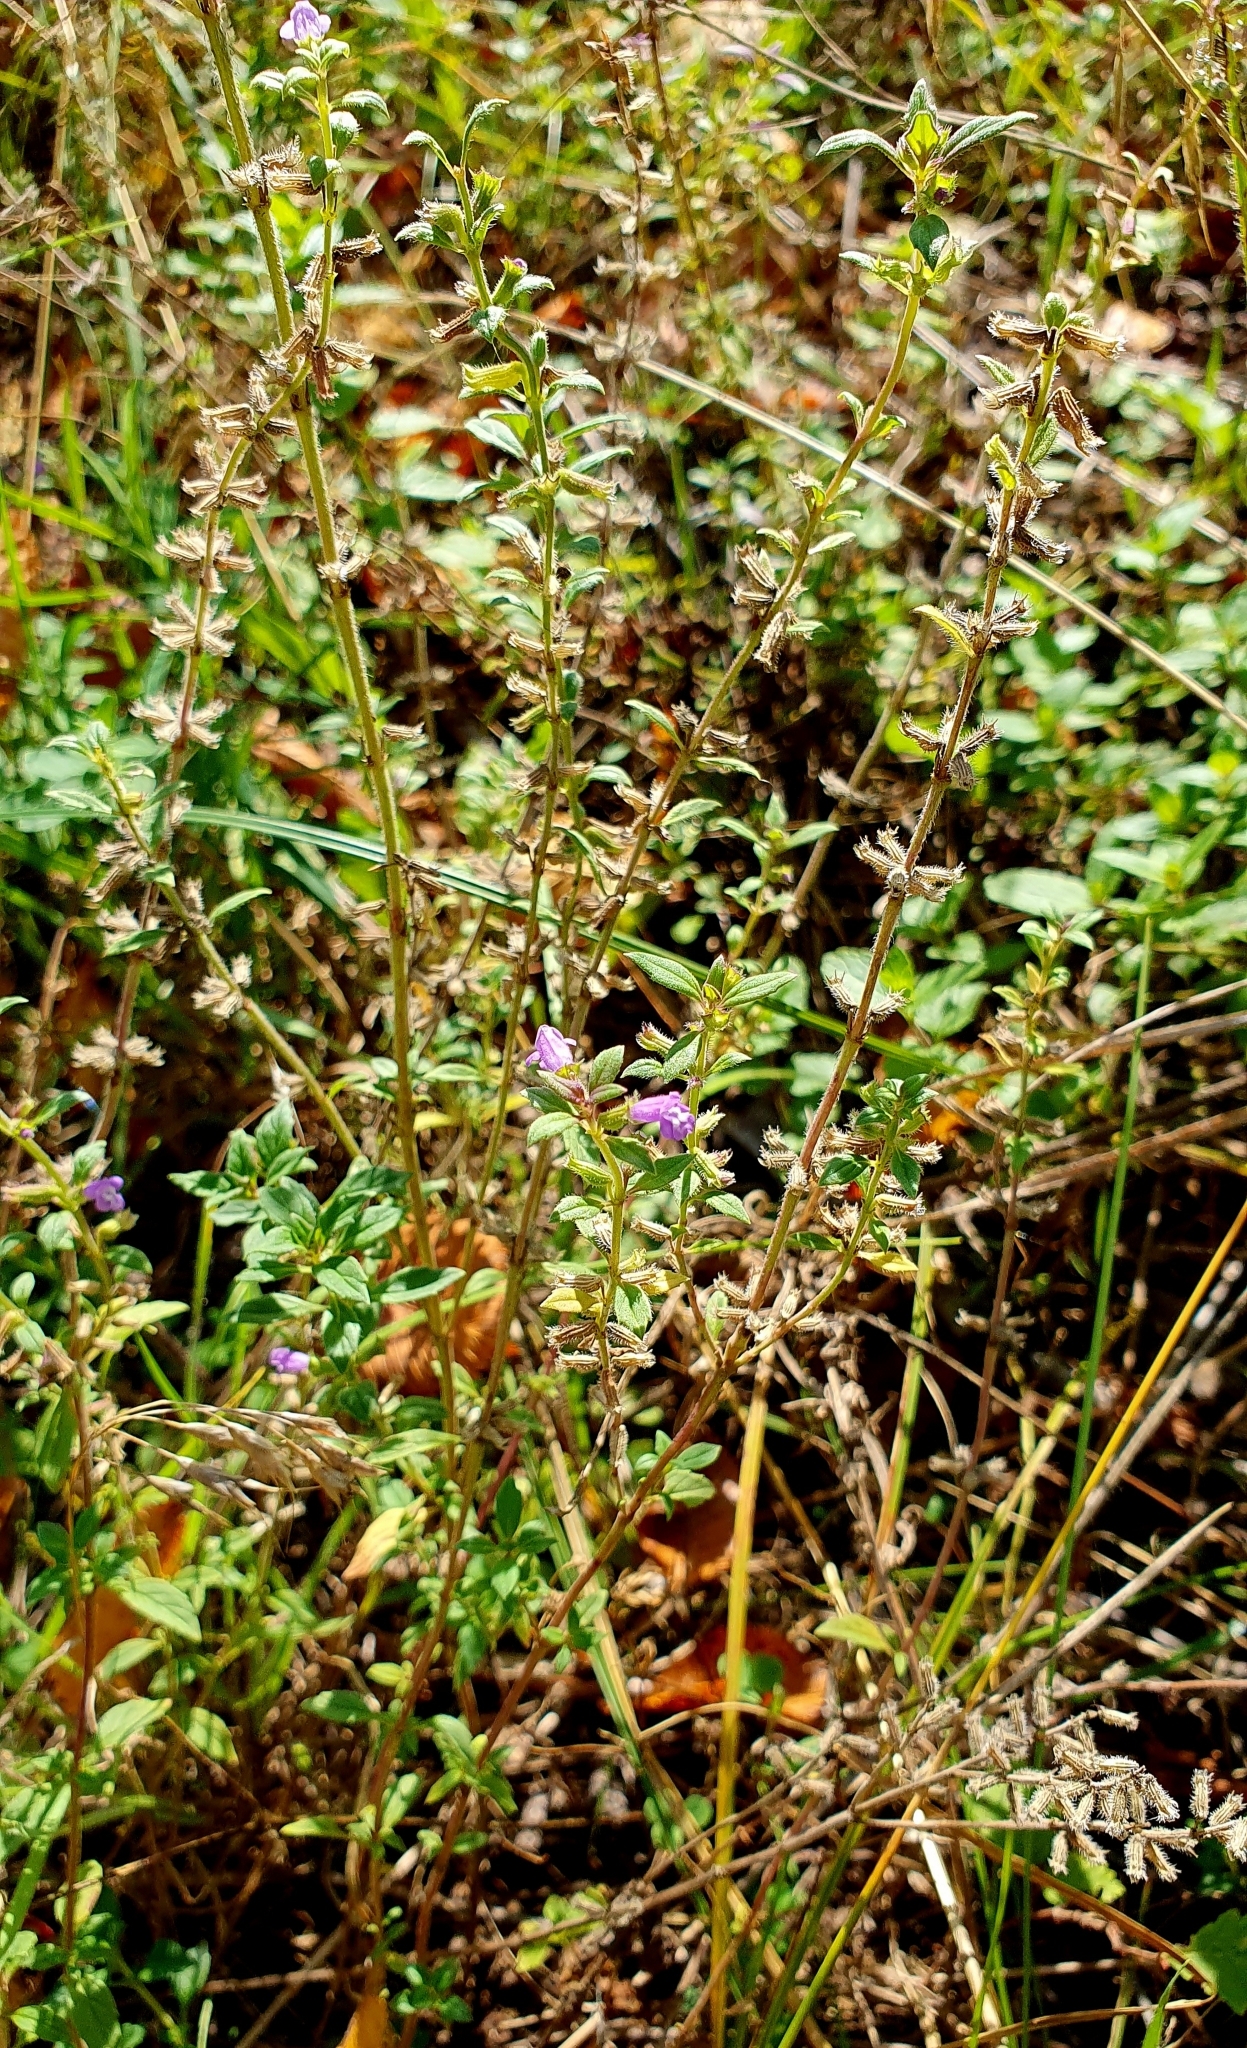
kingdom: Plantae
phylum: Tracheophyta
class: Magnoliopsida
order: Lamiales
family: Lamiaceae
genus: Clinopodium
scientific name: Clinopodium acinos
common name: Basil thyme
